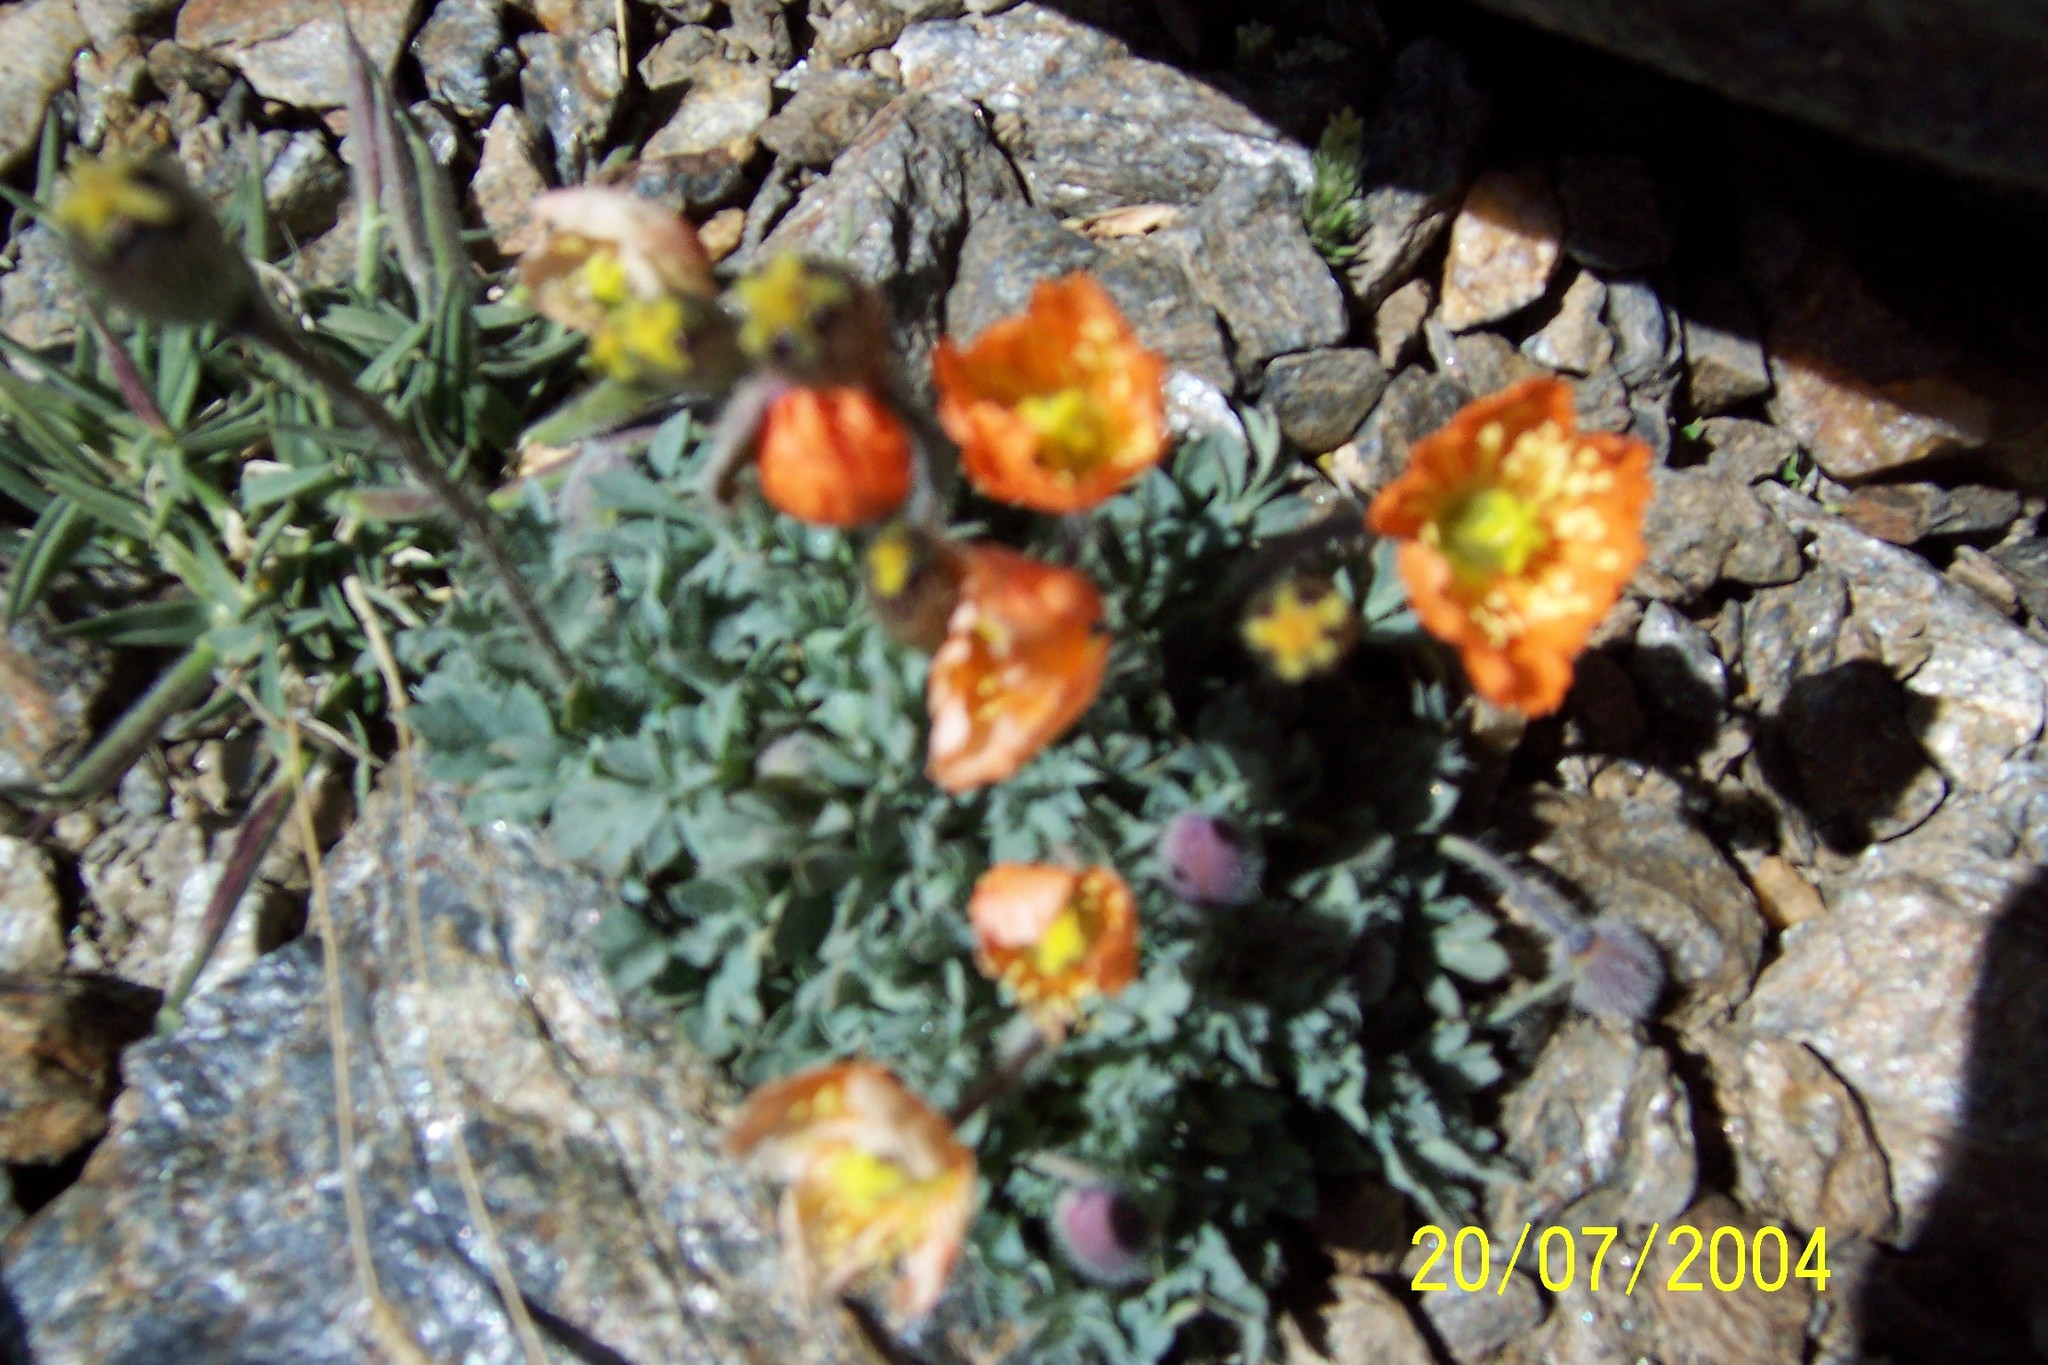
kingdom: Plantae
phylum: Tracheophyta
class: Magnoliopsida
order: Ranunculales
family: Papaveraceae
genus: Papaver
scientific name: Papaver alpinum
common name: Austrian poppy
